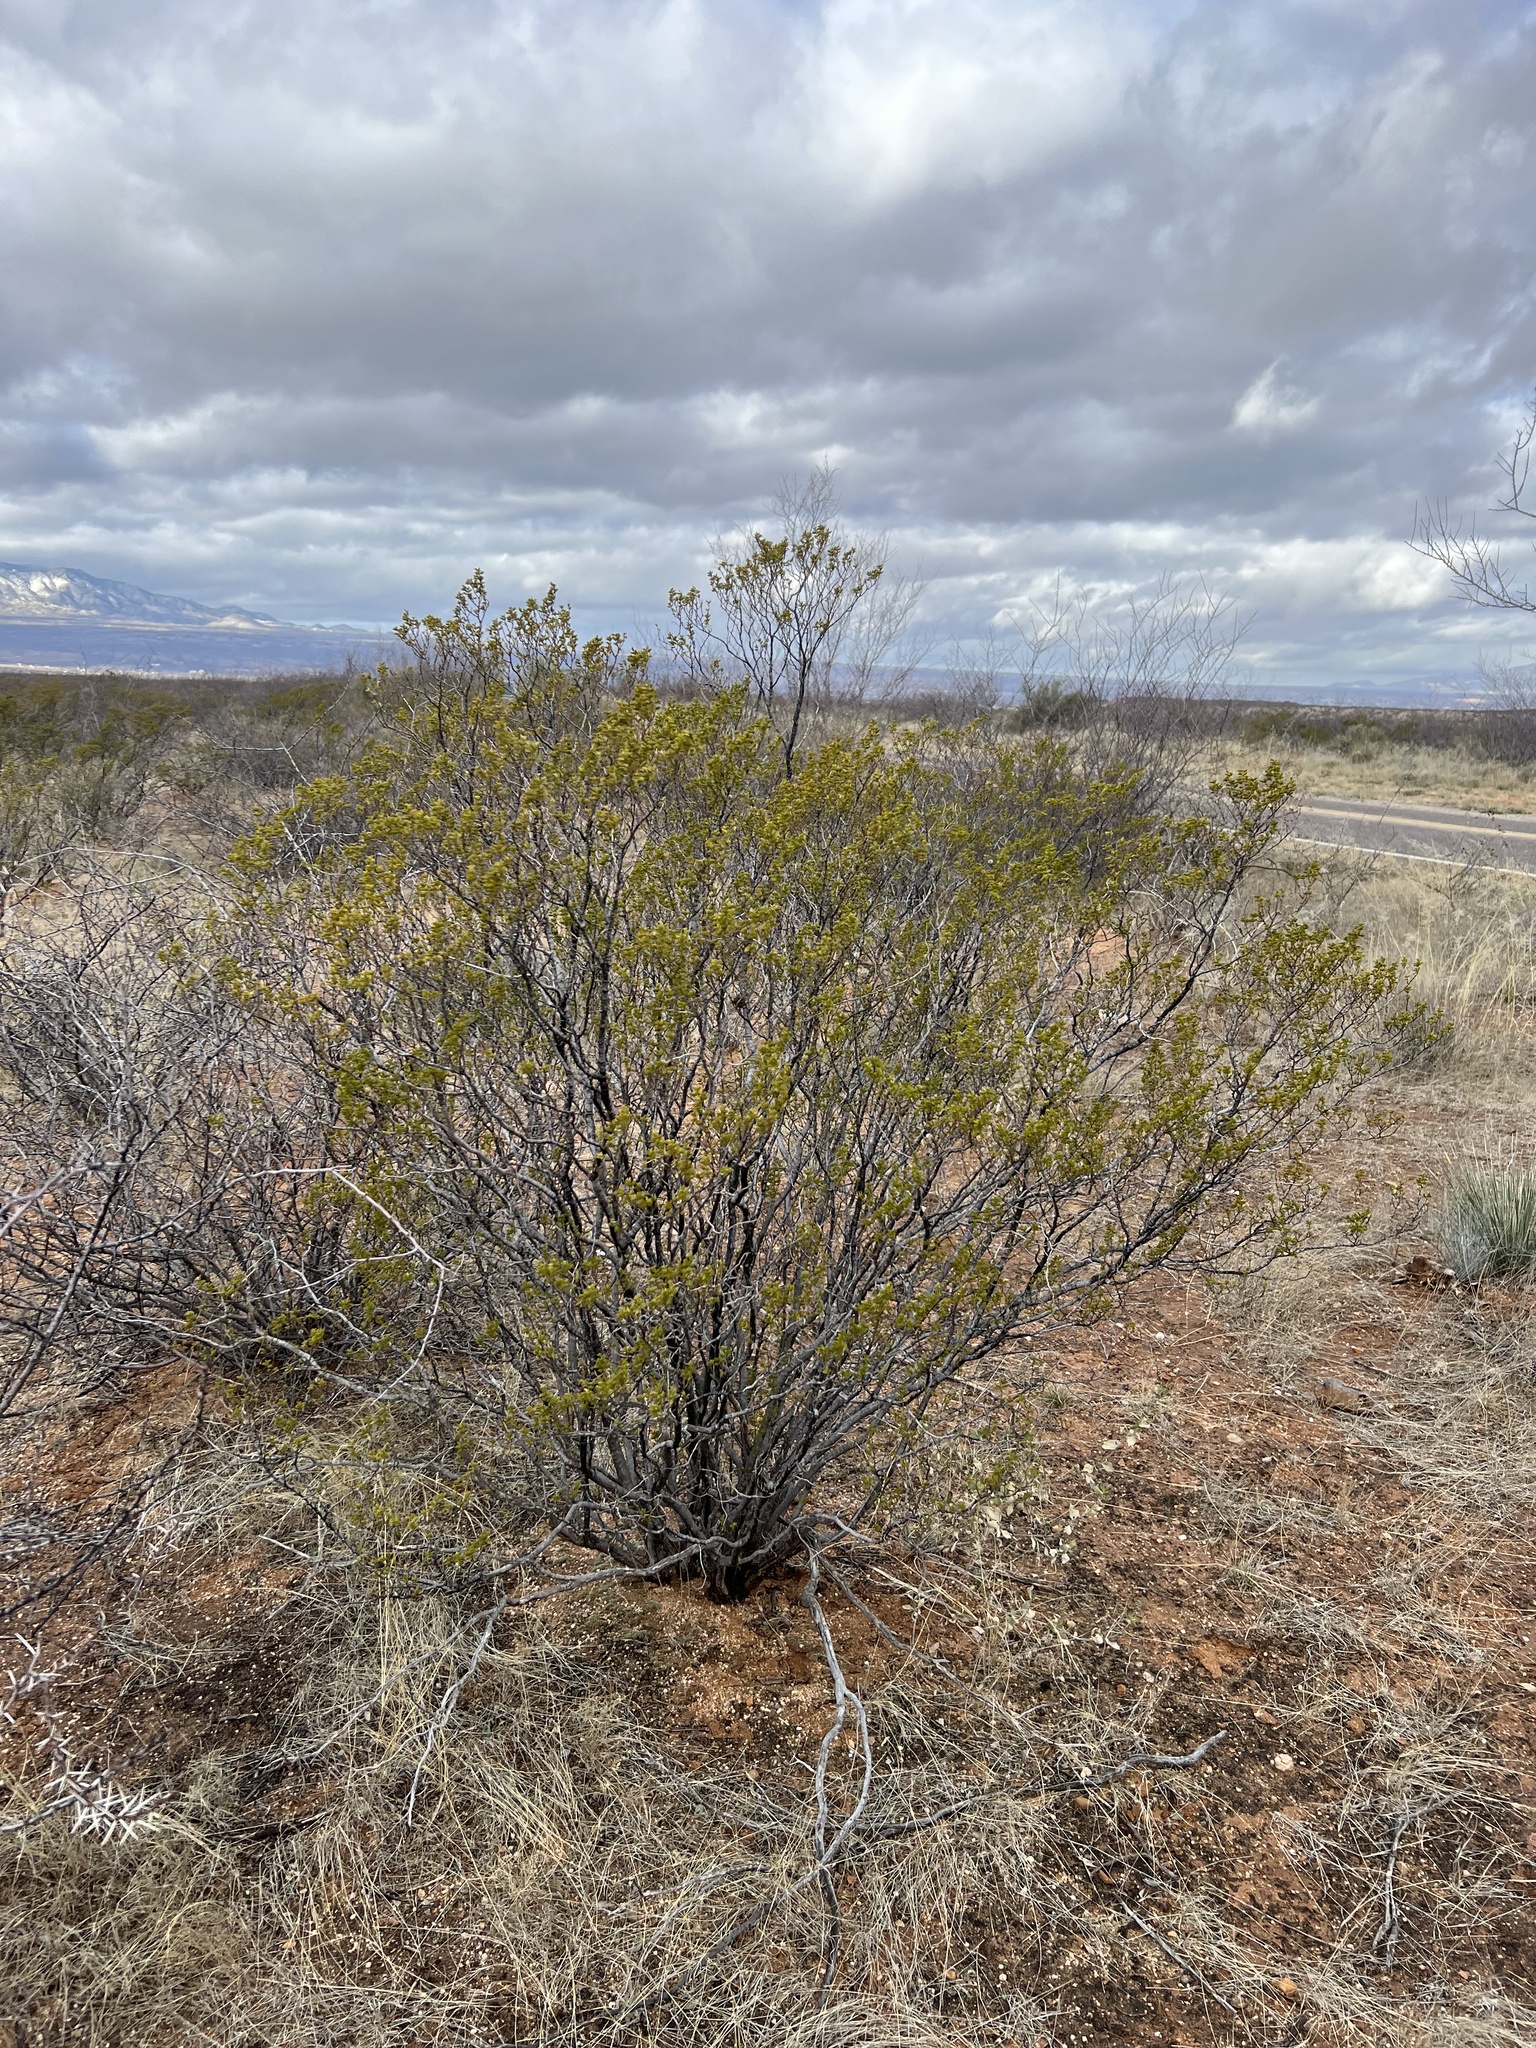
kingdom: Plantae
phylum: Tracheophyta
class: Magnoliopsida
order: Zygophyllales
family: Zygophyllaceae
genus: Larrea
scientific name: Larrea tridentata
